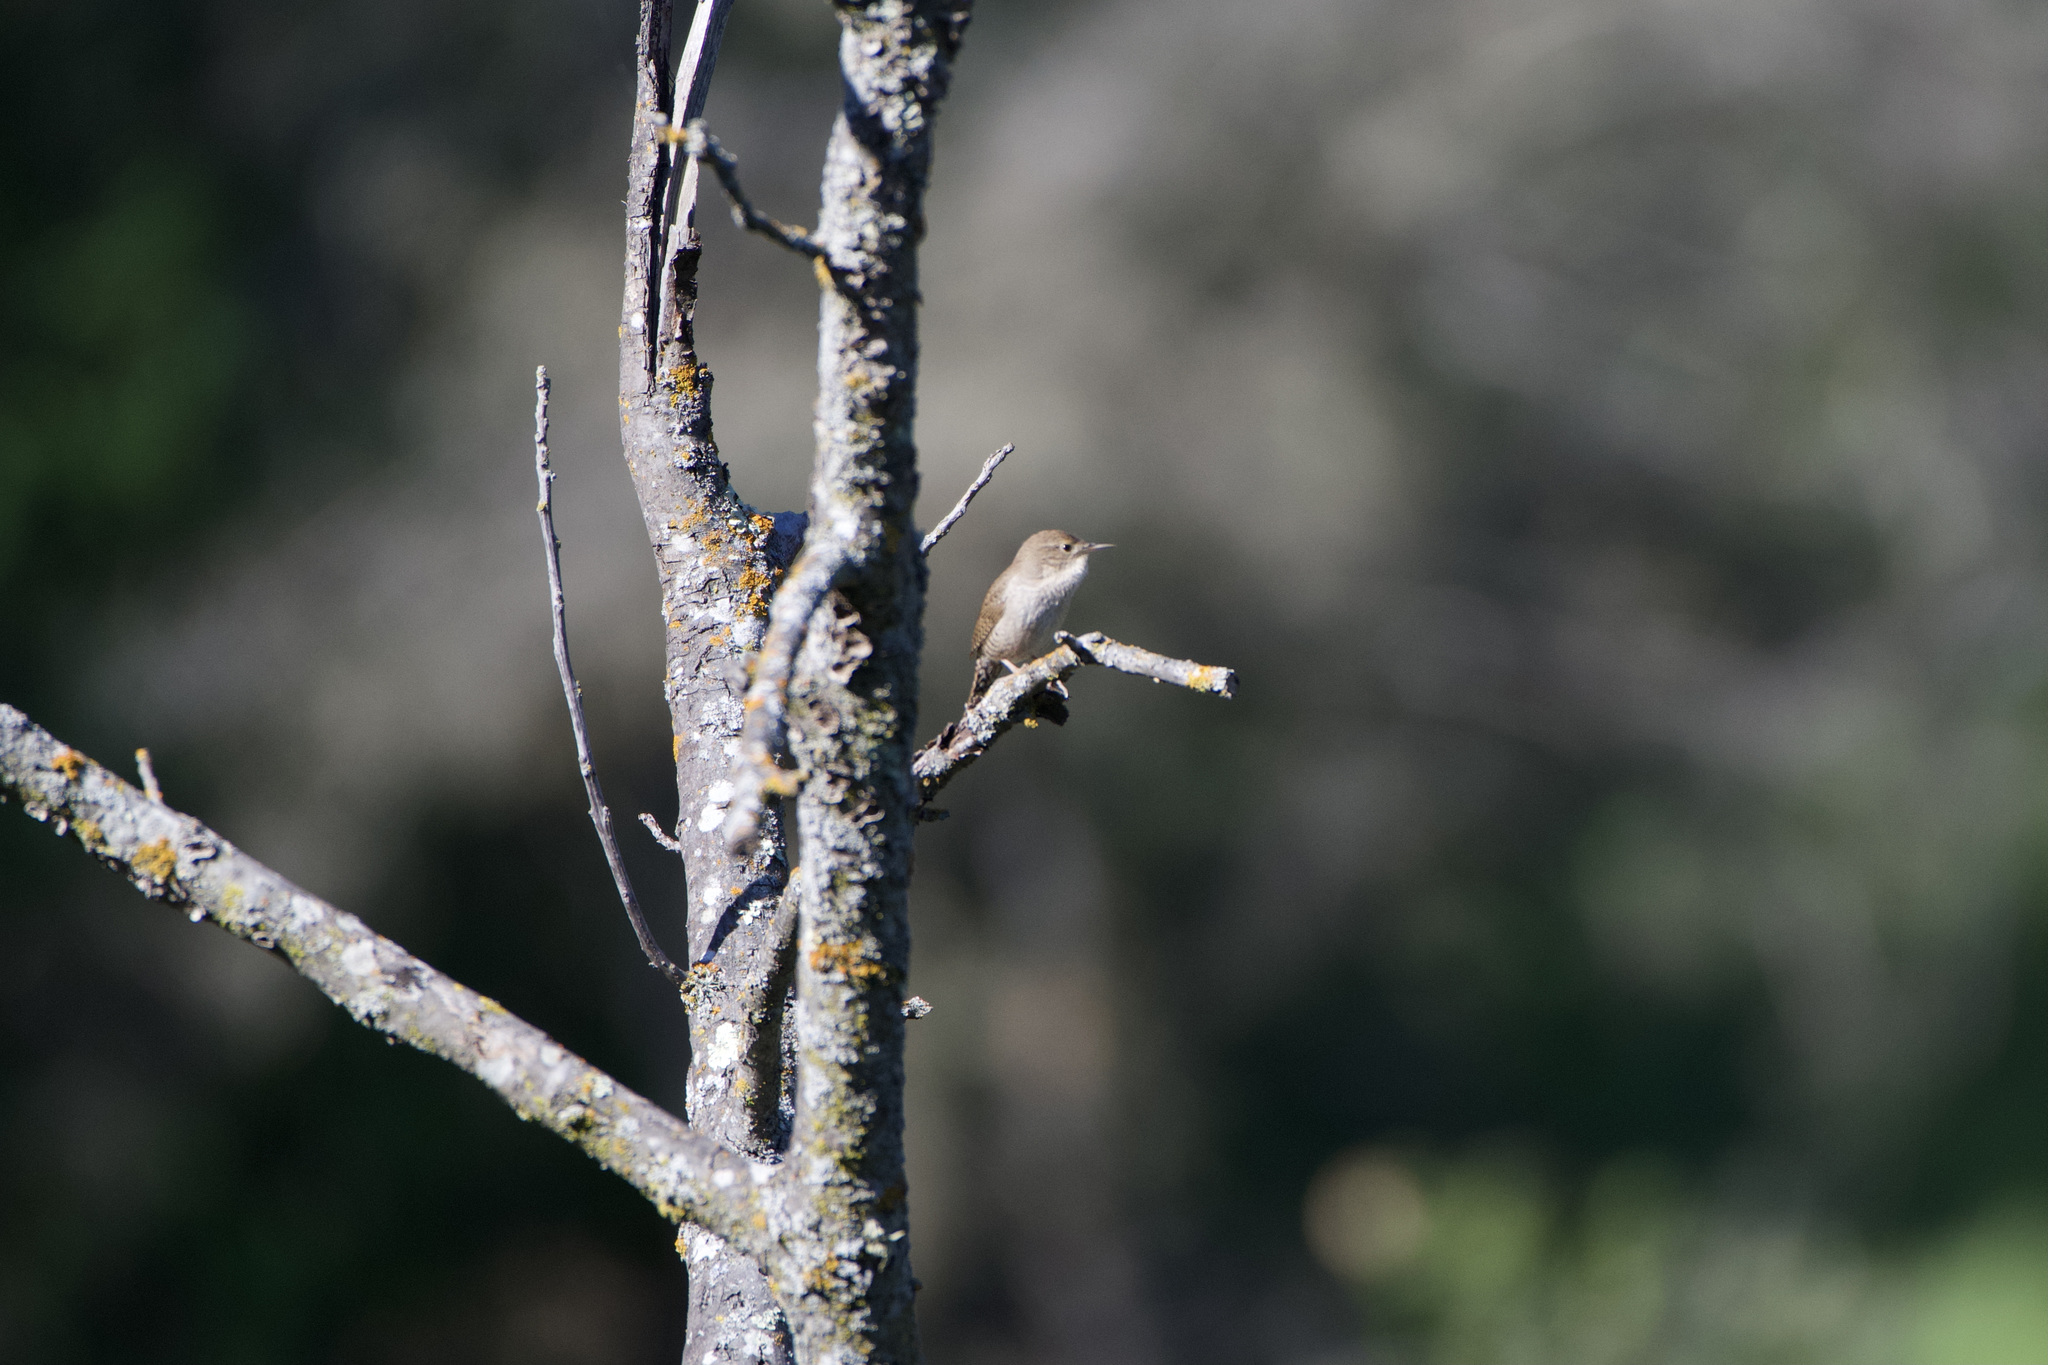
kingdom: Animalia
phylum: Chordata
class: Aves
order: Passeriformes
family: Troglodytidae
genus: Troglodytes
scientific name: Troglodytes aedon
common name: House wren
